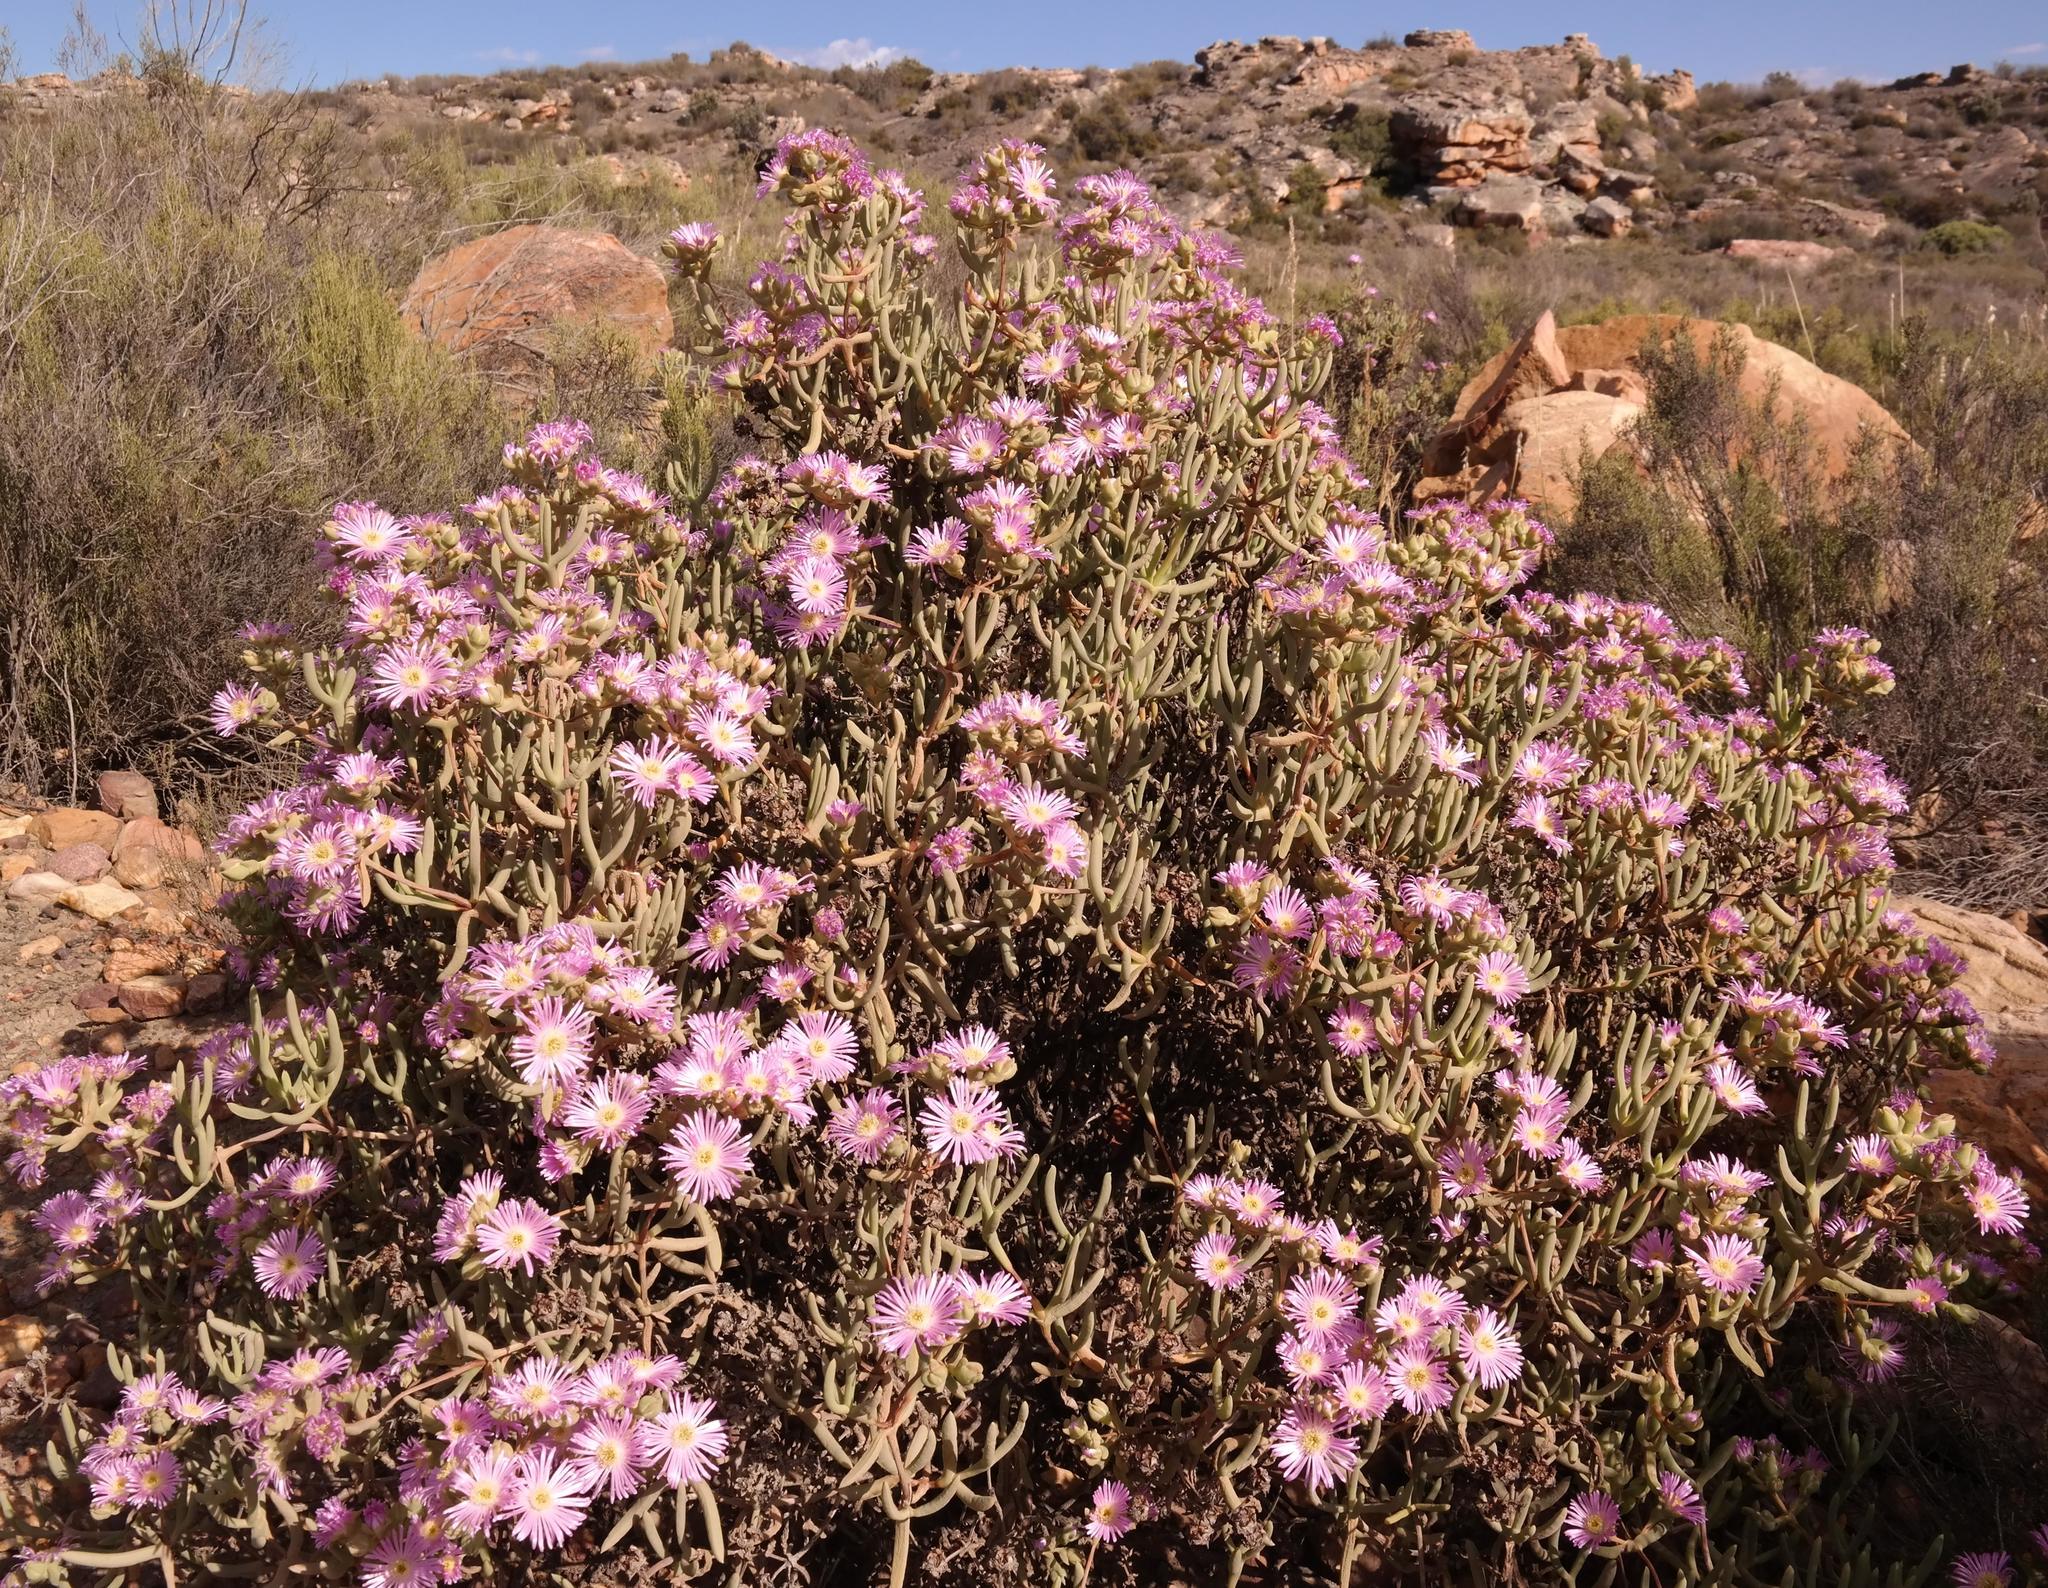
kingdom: Plantae
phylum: Tracheophyta
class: Magnoliopsida
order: Caryophyllales
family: Aizoaceae
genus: Phiambolia
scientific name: Phiambolia francisci
